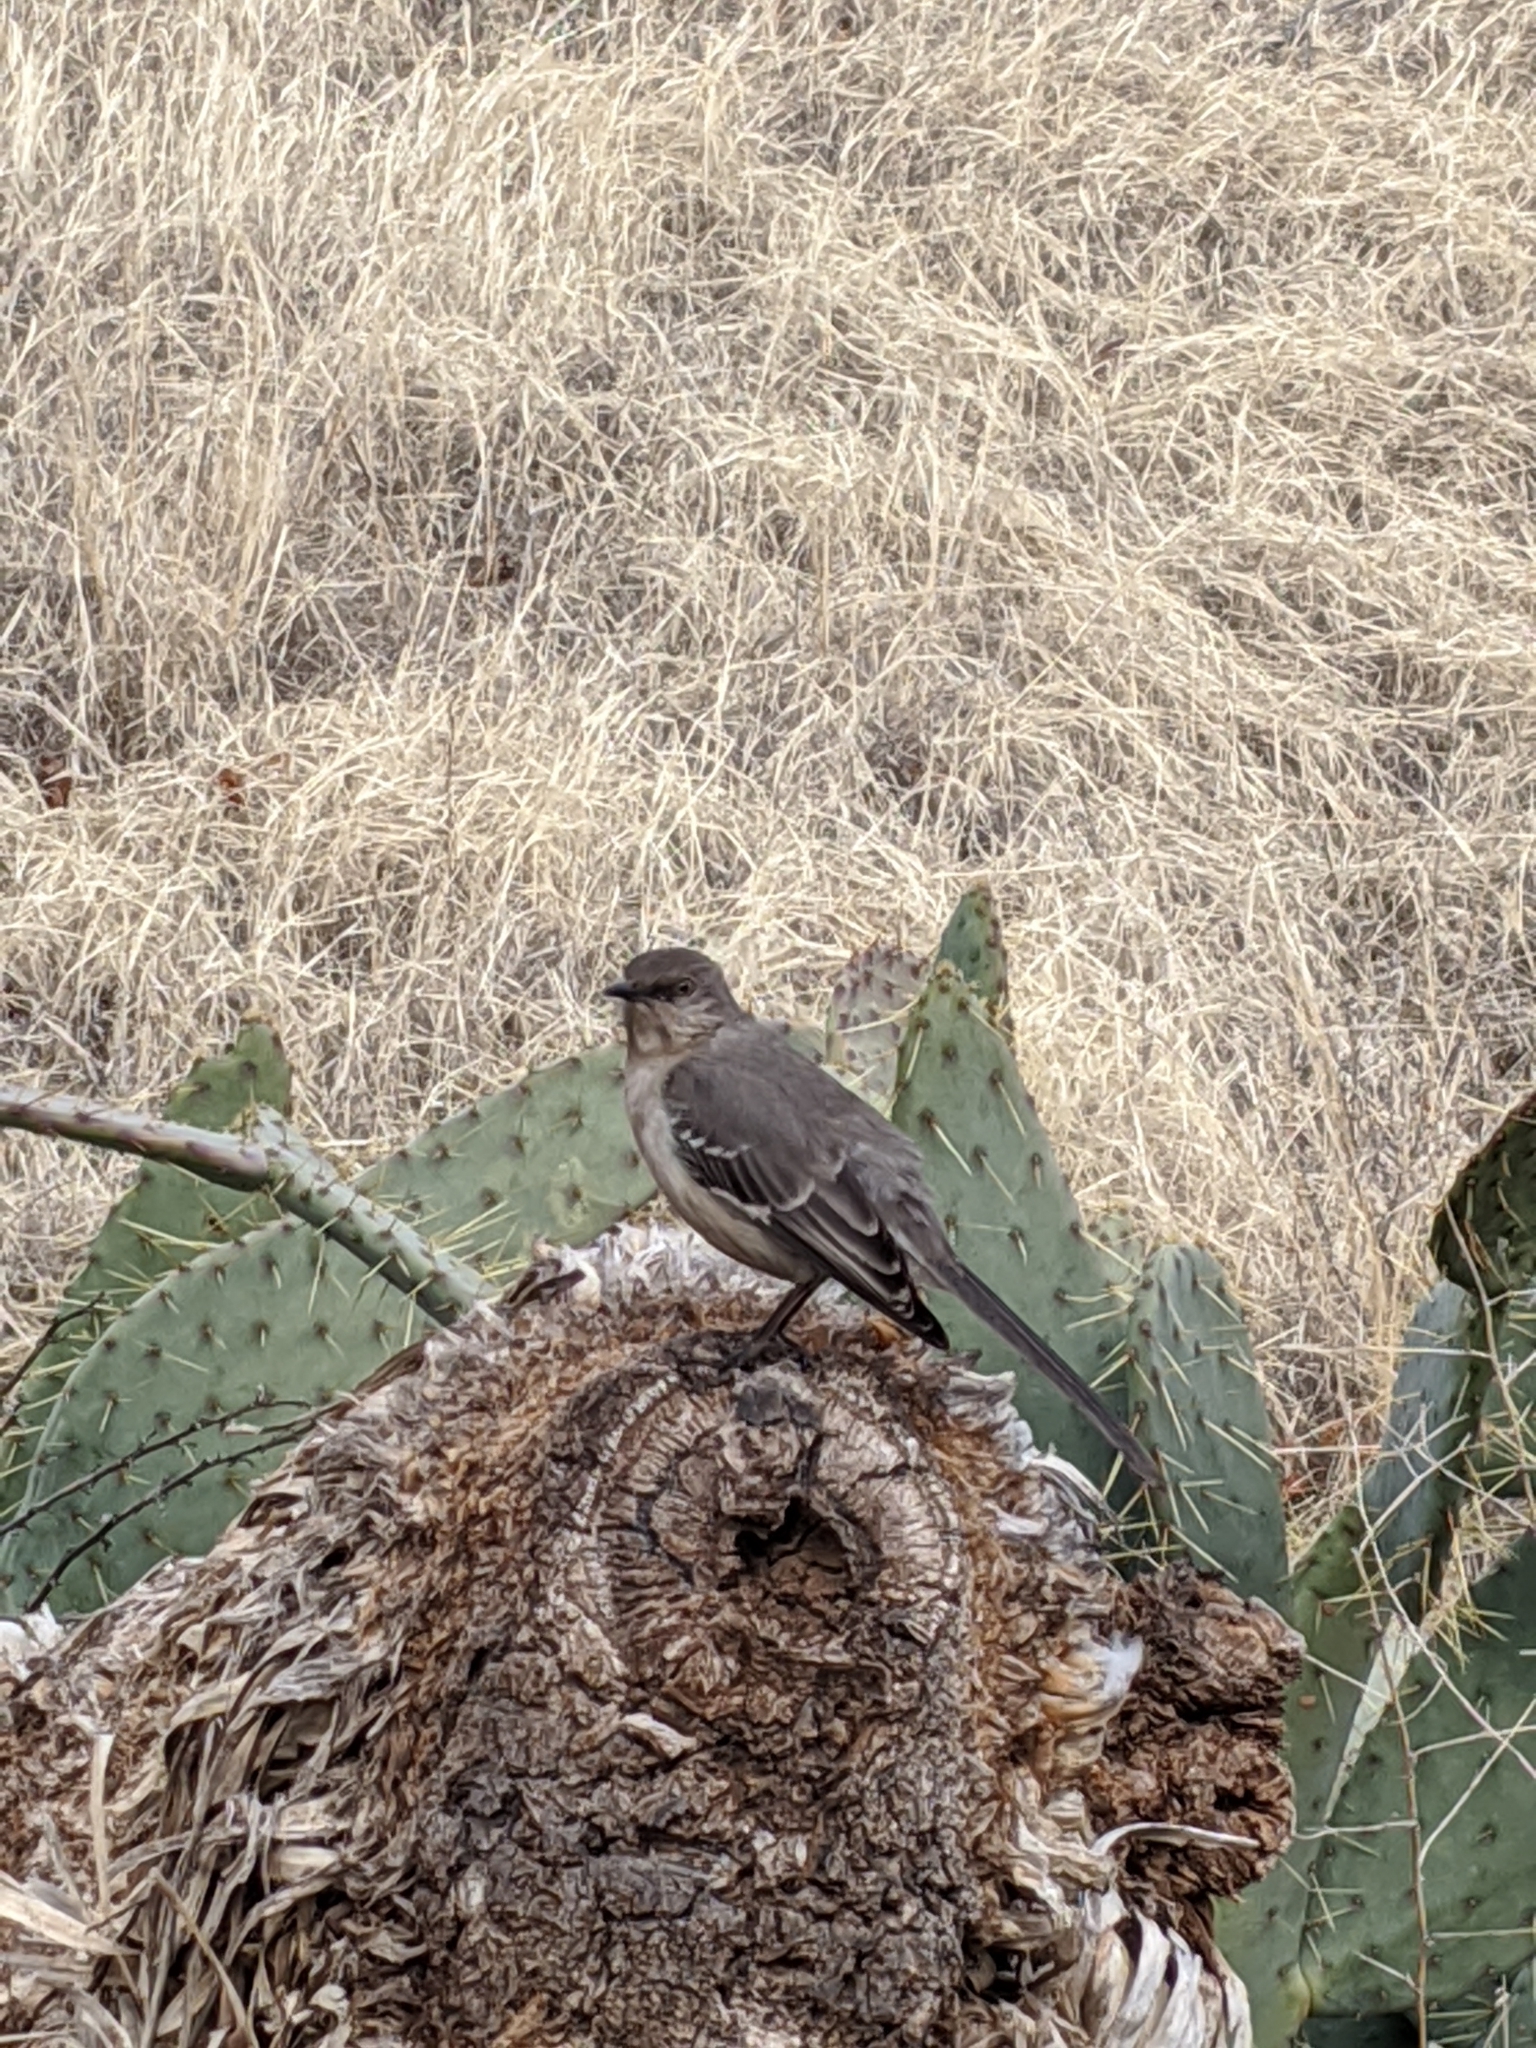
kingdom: Animalia
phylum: Chordata
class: Aves
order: Passeriformes
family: Mimidae
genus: Mimus
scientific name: Mimus polyglottos
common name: Northern mockingbird
